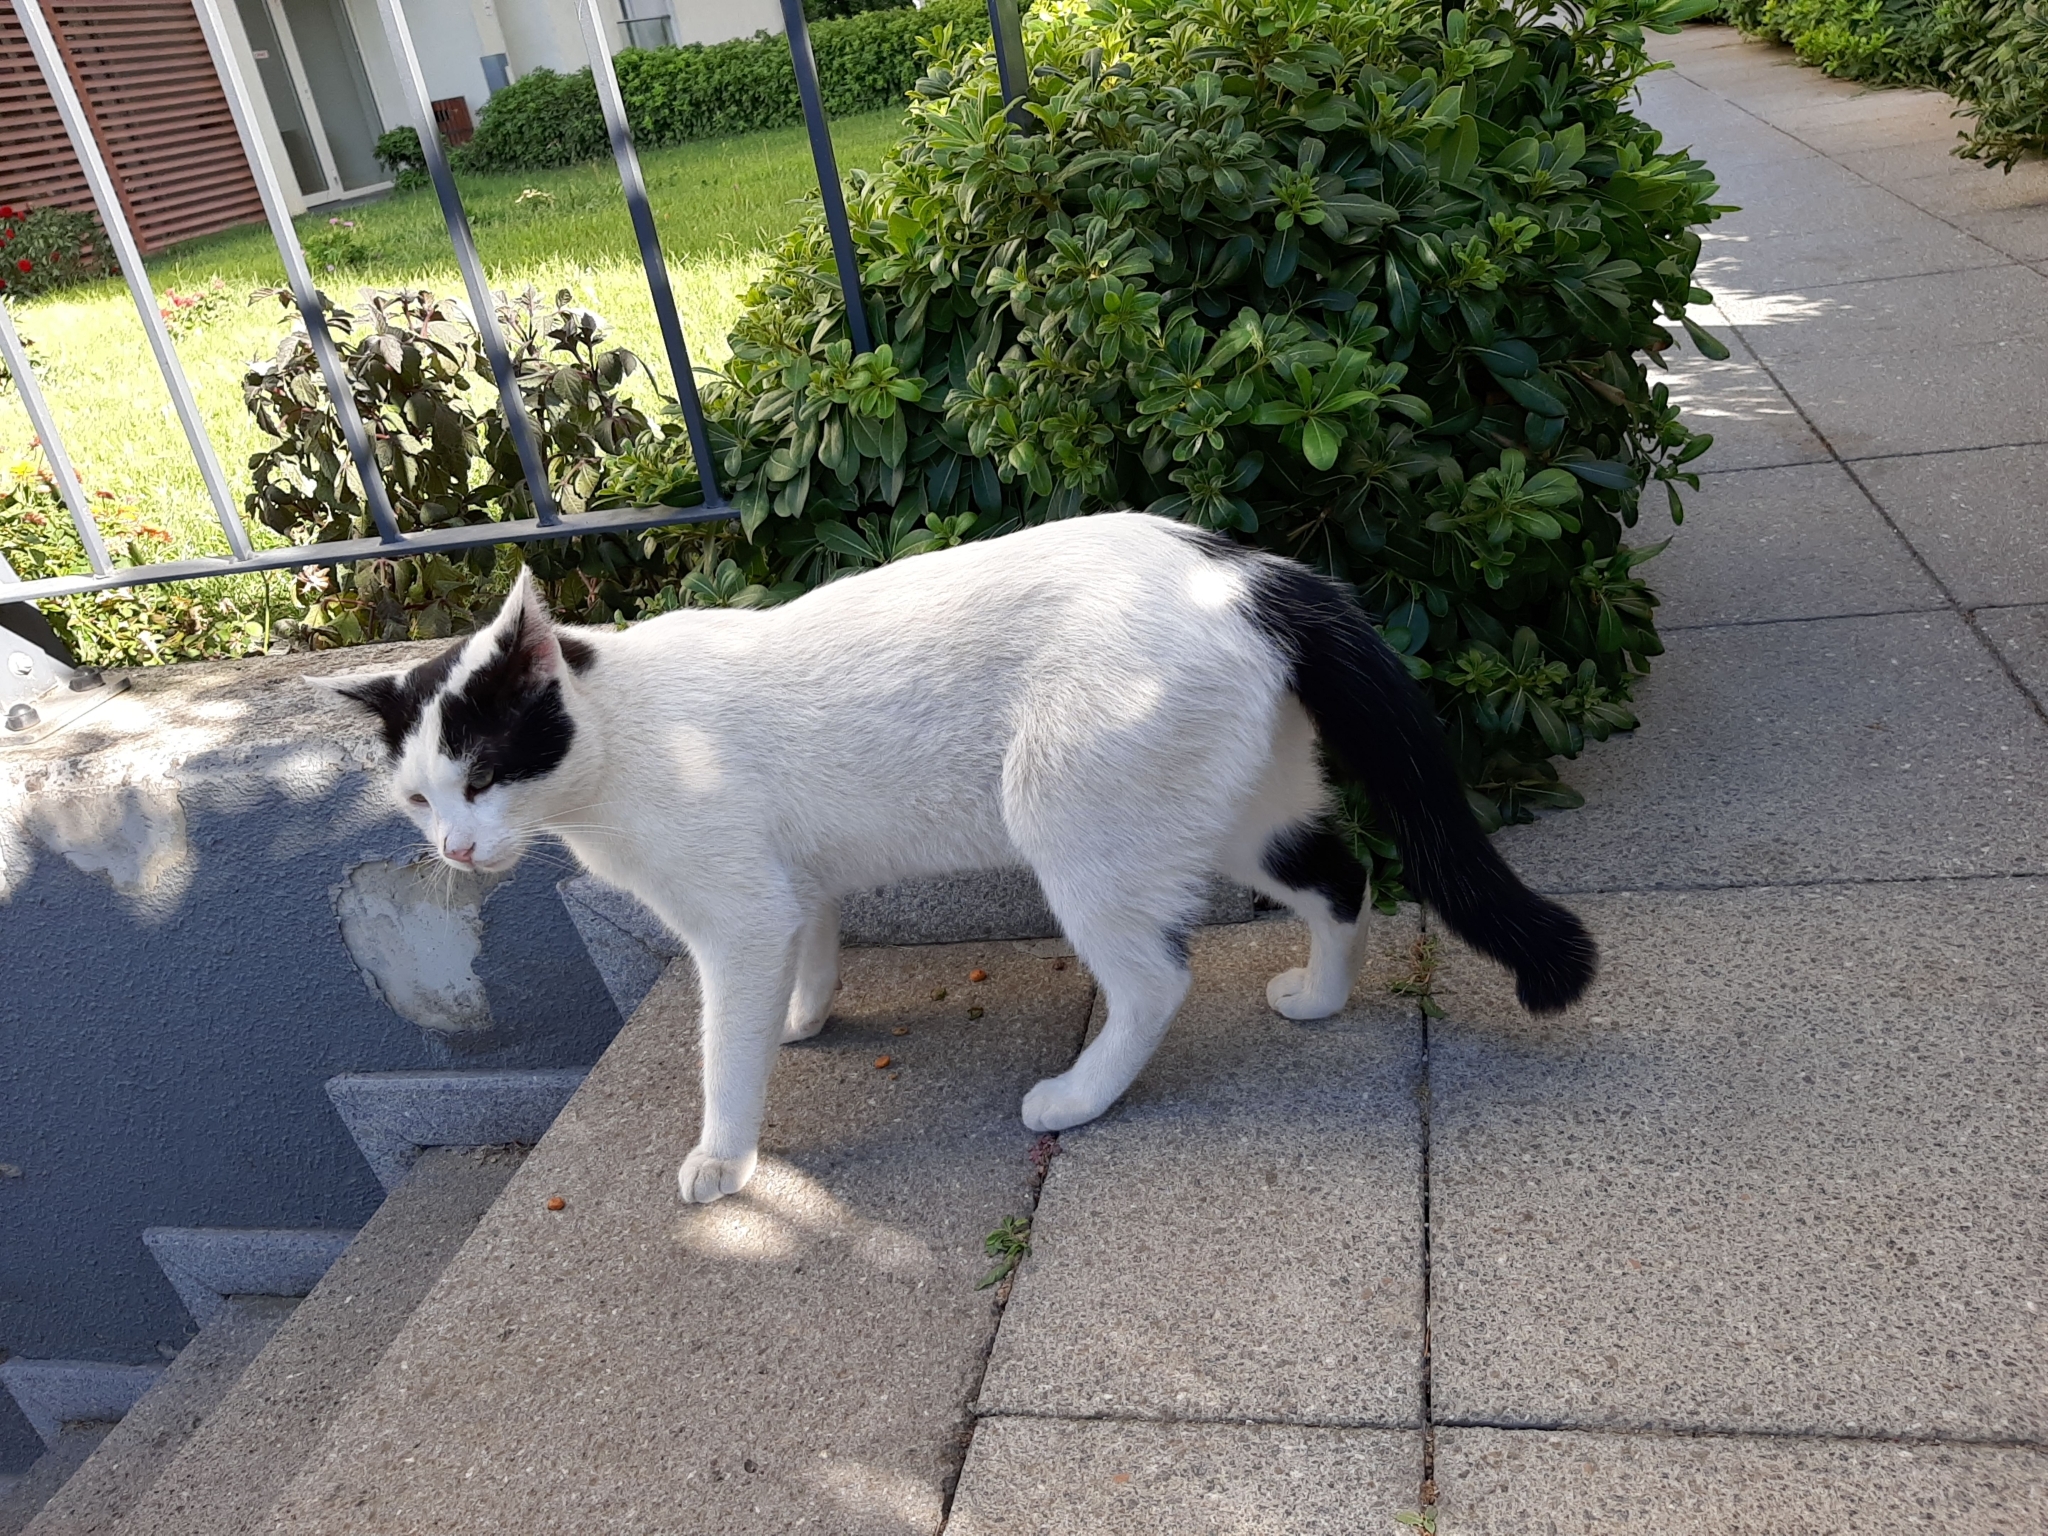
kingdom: Animalia
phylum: Chordata
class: Mammalia
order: Carnivora
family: Felidae
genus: Felis
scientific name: Felis catus
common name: Domestic cat
